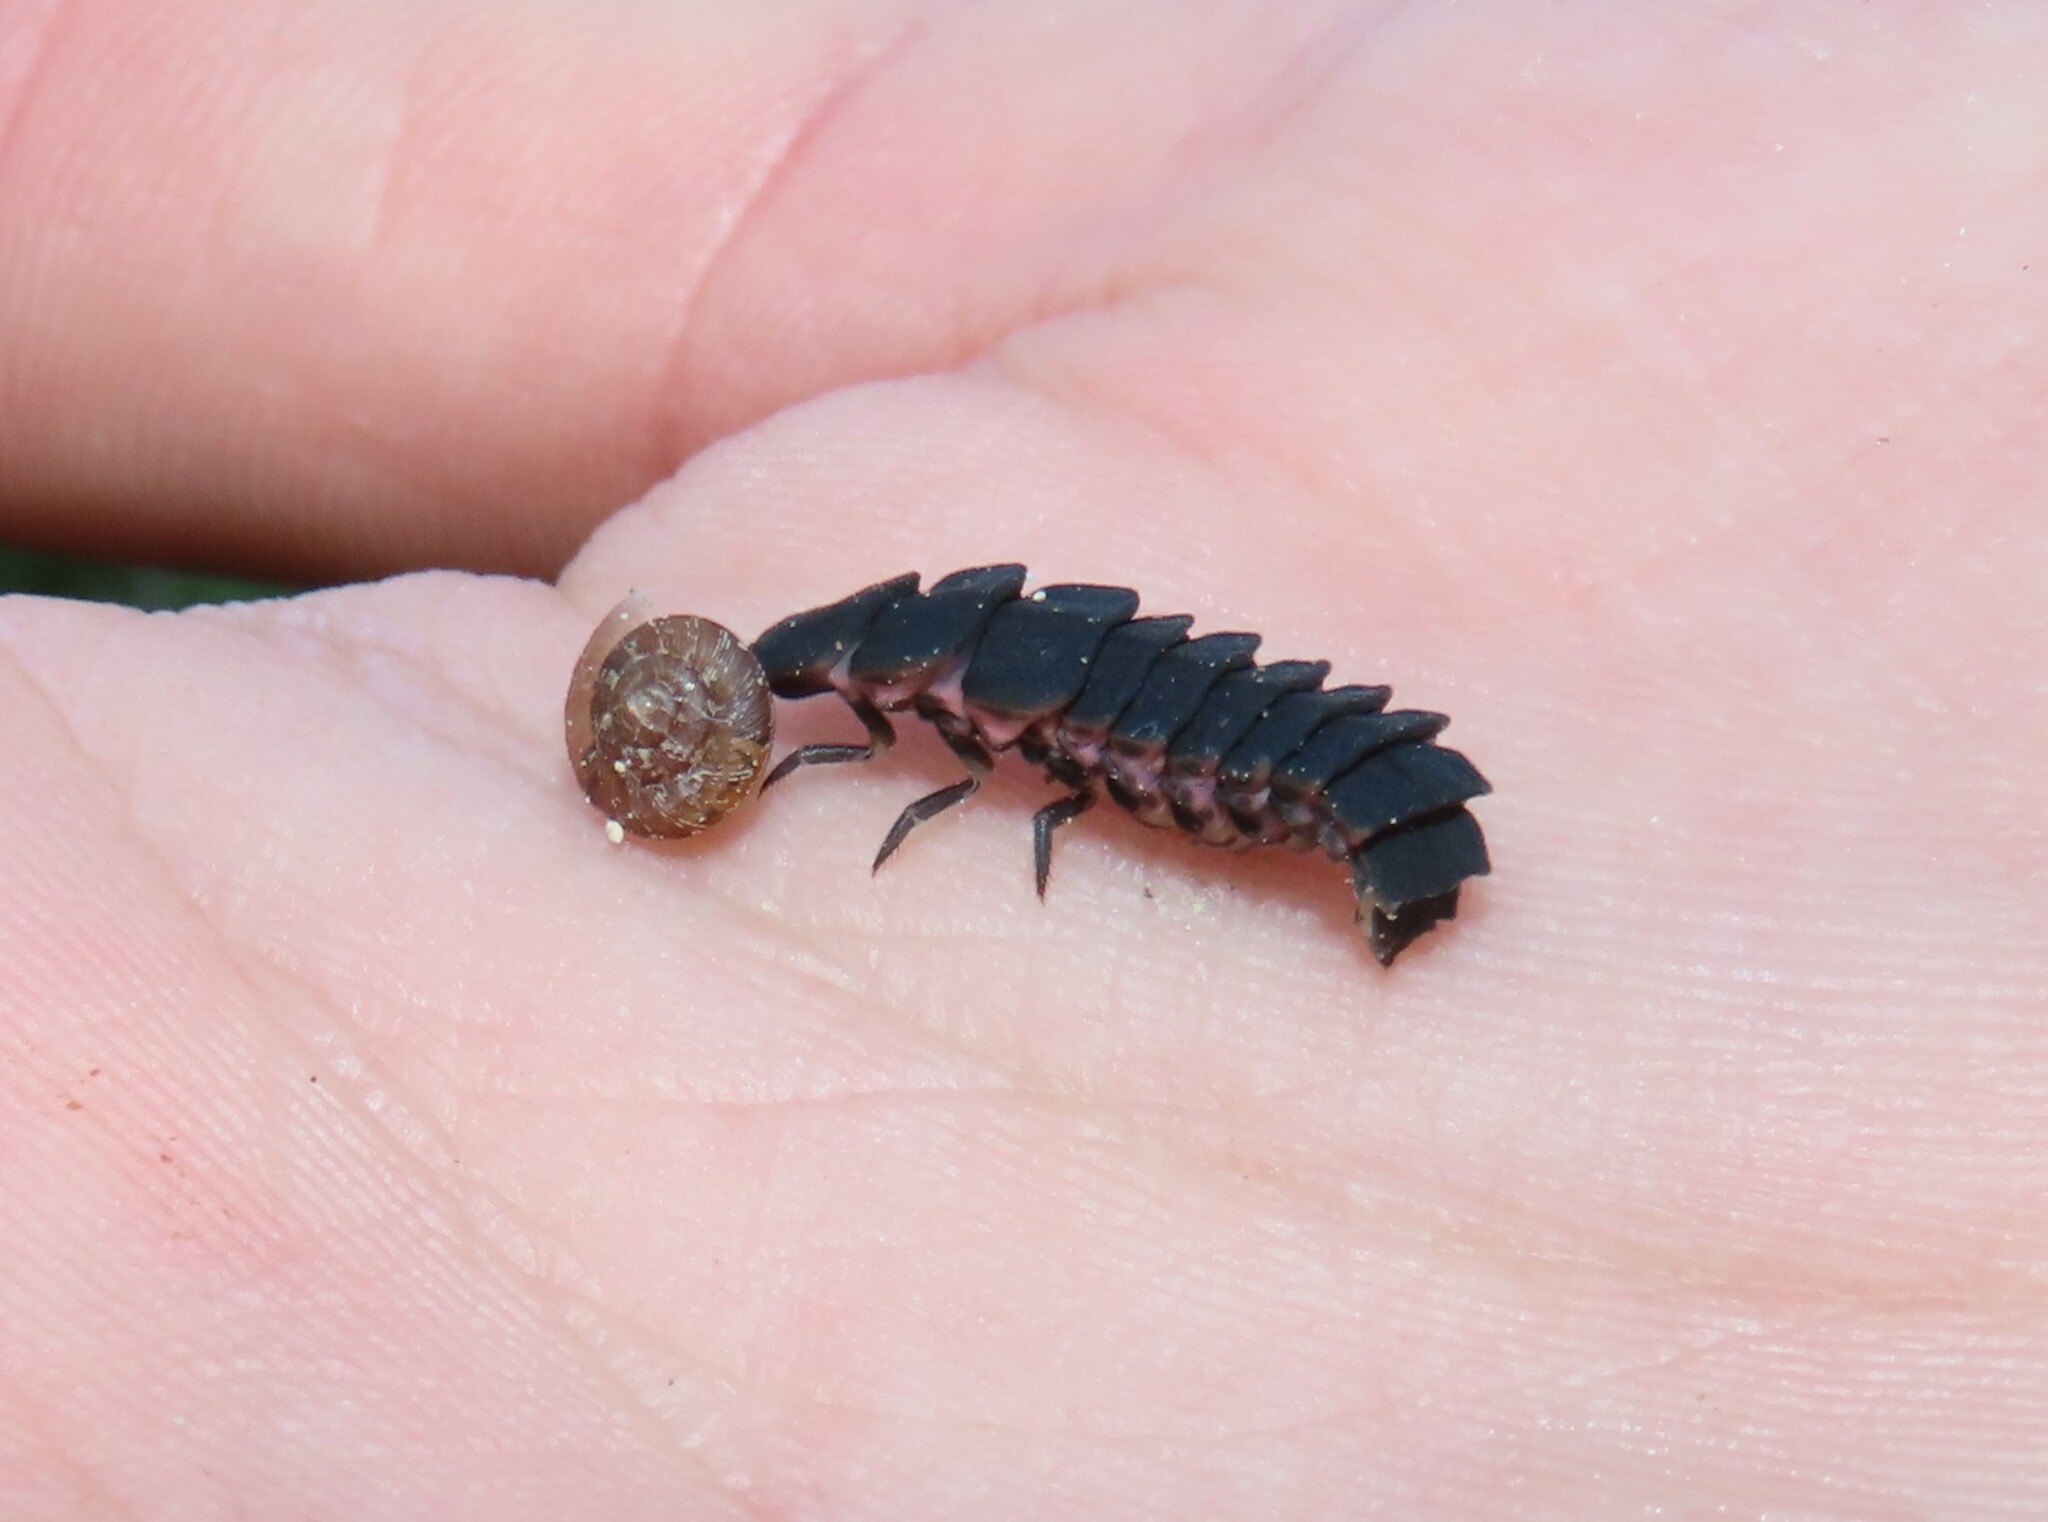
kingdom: Animalia
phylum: Arthropoda
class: Insecta
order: Coleoptera
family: Lampyridae
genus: Nyctophila
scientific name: Nyctophila reichii
